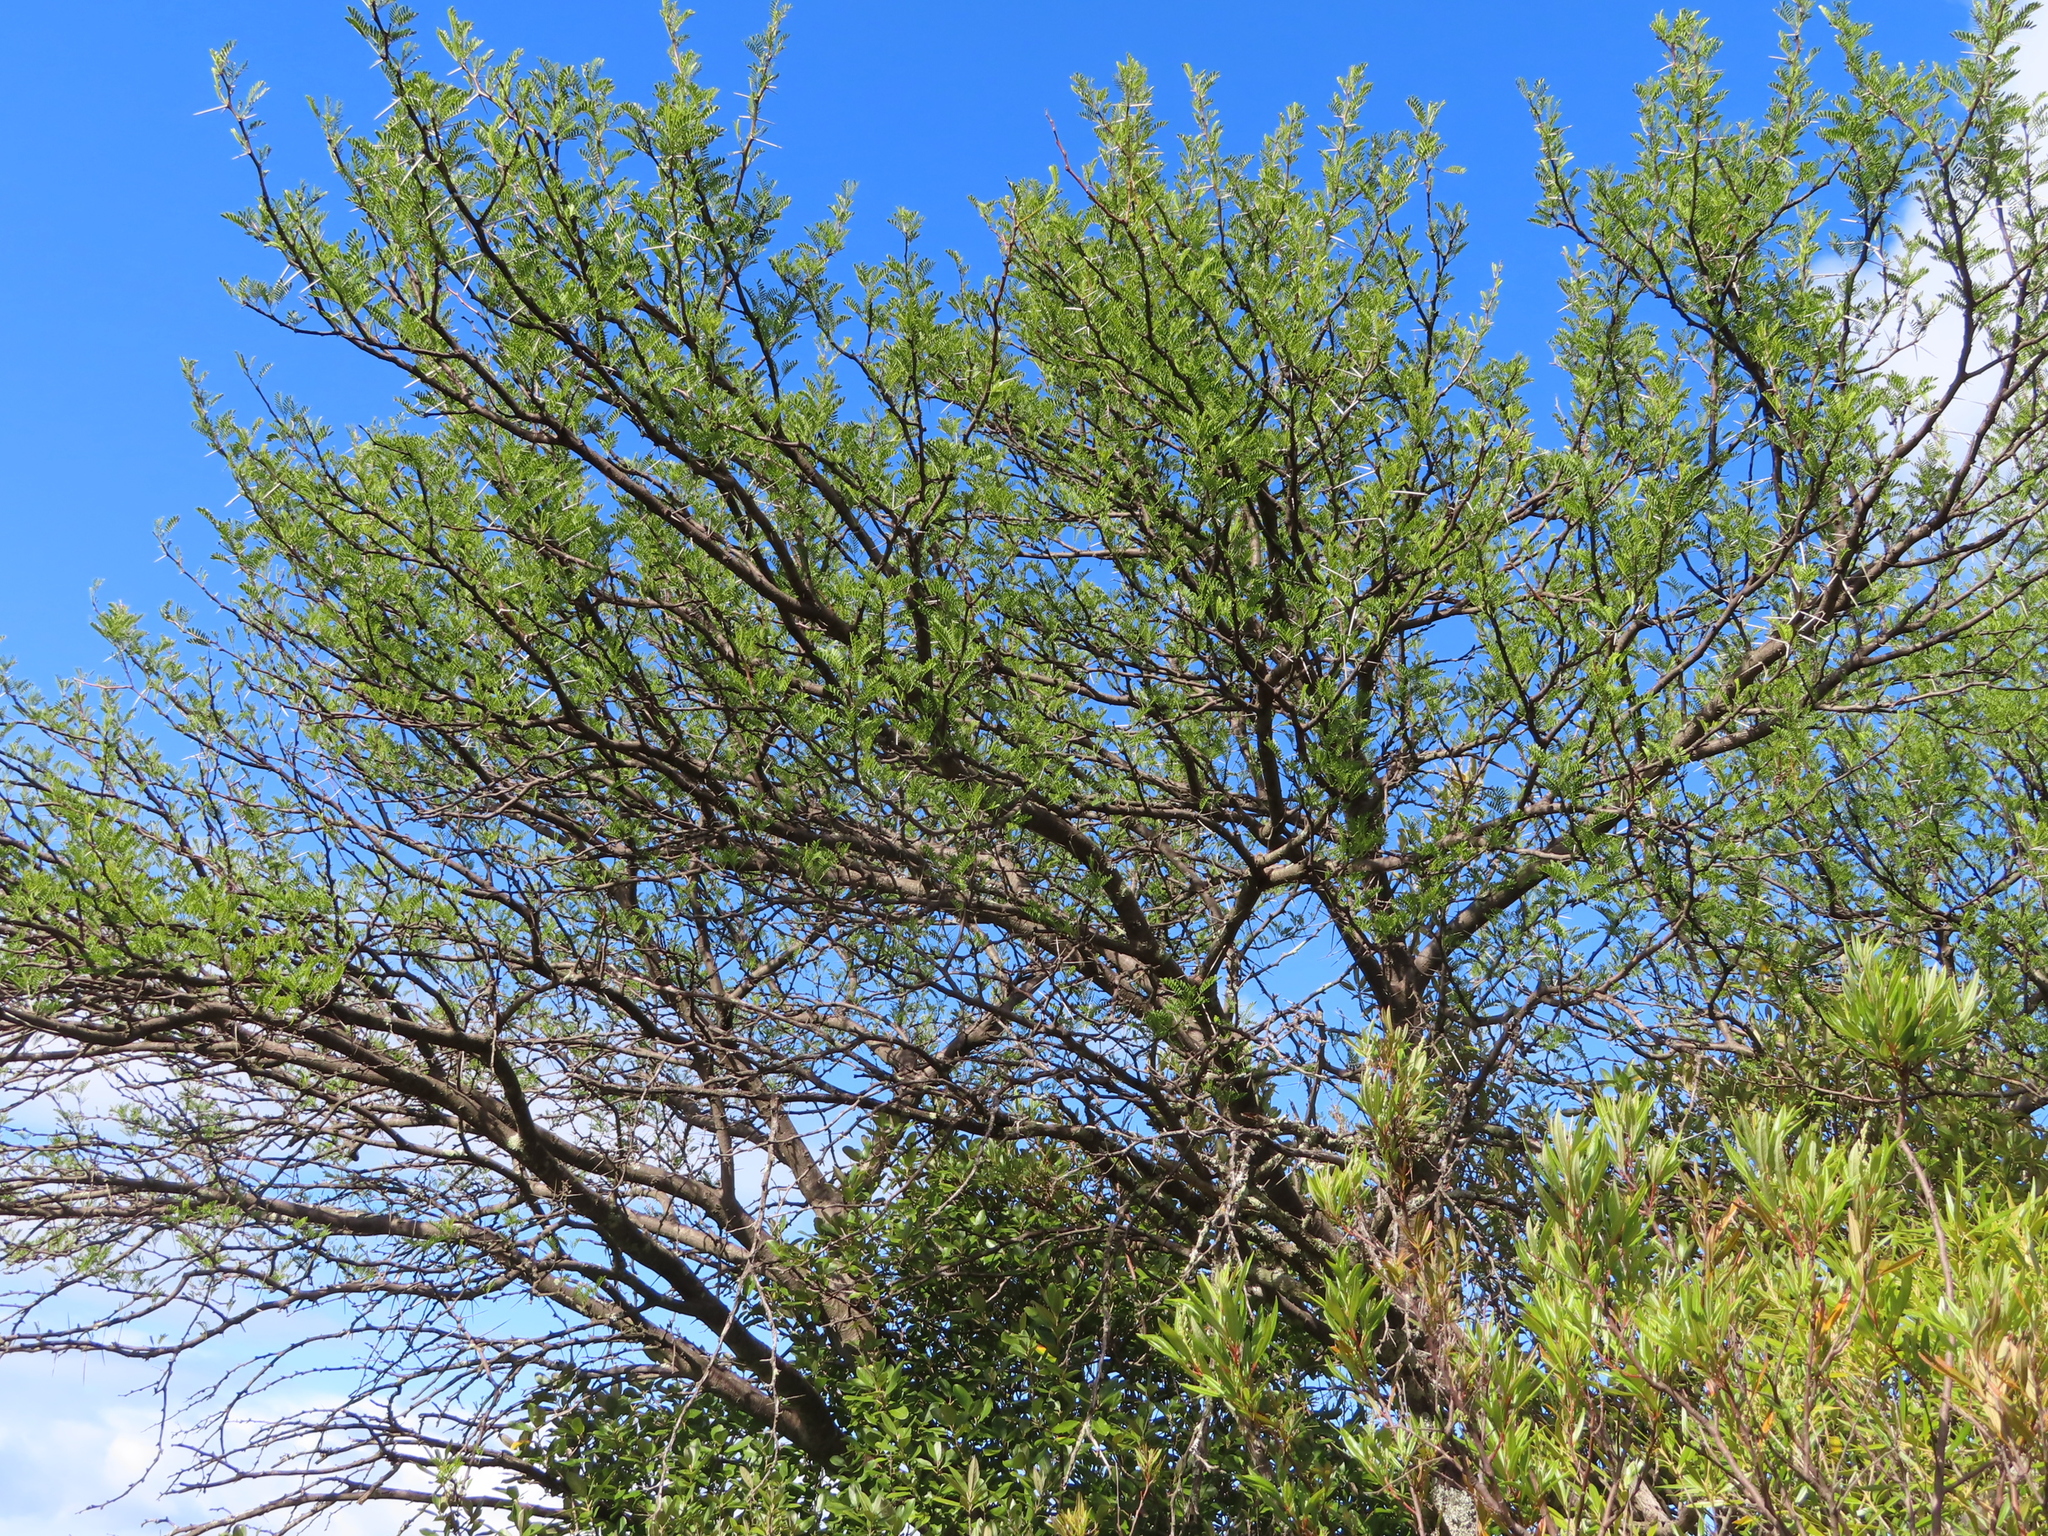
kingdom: Plantae
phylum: Tracheophyta
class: Magnoliopsida
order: Fabales
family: Fabaceae
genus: Vachellia
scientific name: Vachellia karroo
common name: Sweet thorn
